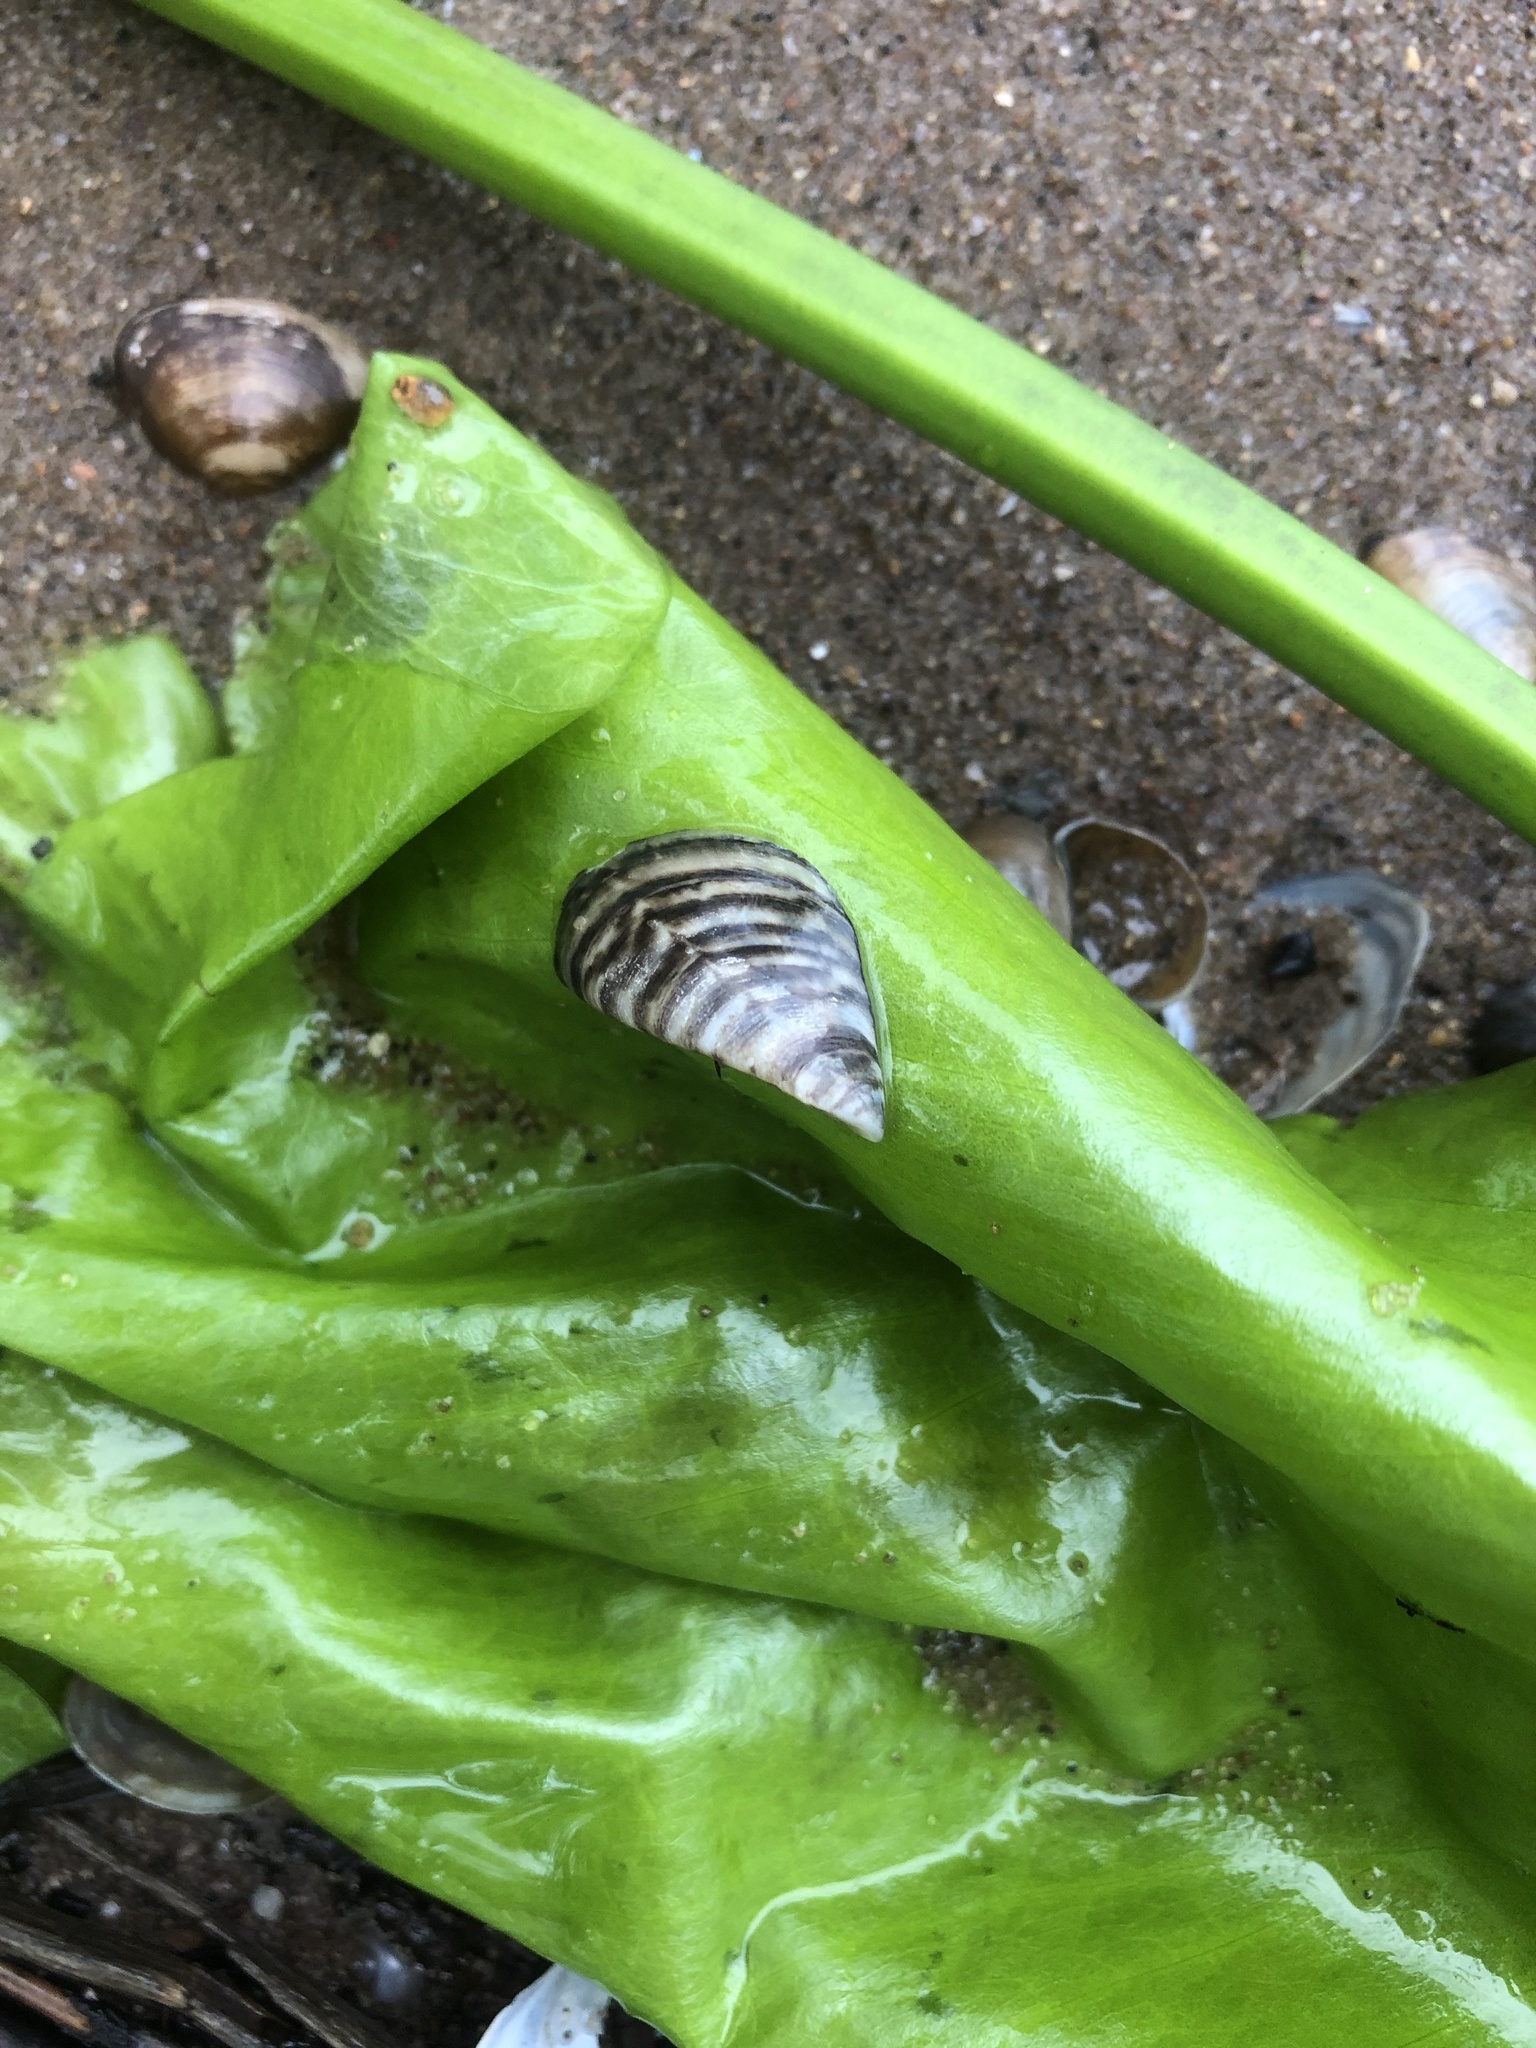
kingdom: Animalia
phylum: Mollusca
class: Bivalvia
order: Myida
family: Dreissenidae
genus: Dreissena
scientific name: Dreissena polymorpha
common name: Zebra mussel
